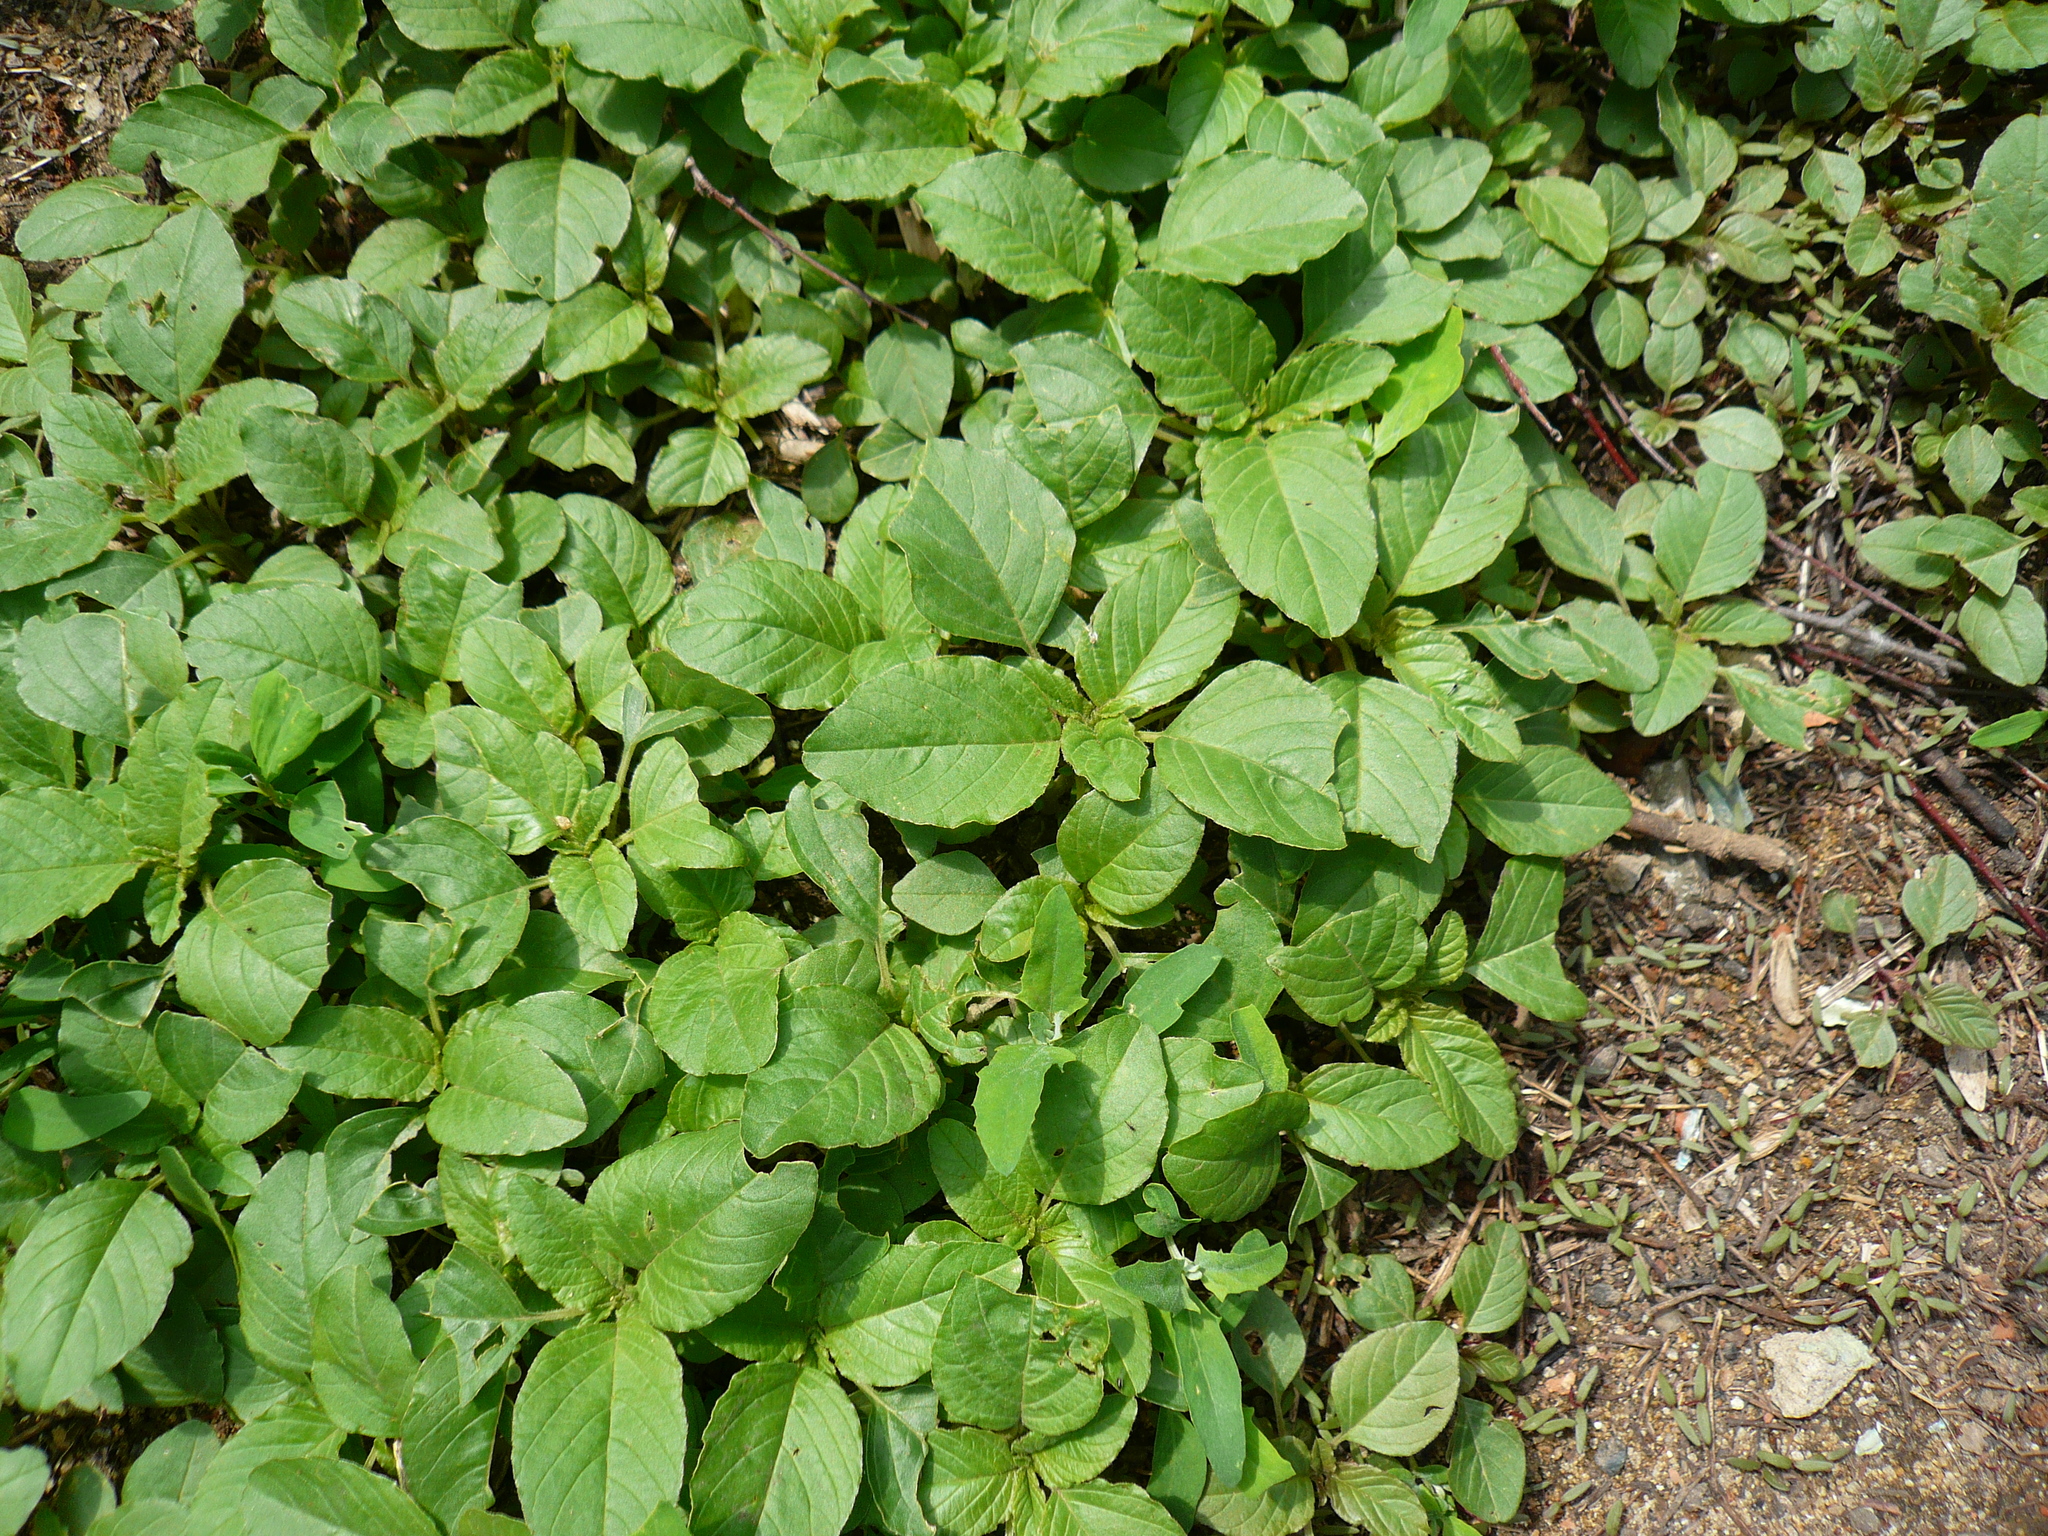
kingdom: Plantae
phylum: Tracheophyta
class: Magnoliopsida
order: Caryophyllales
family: Amaranthaceae
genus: Amaranthus
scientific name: Amaranthus retroflexus
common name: Redroot amaranth
